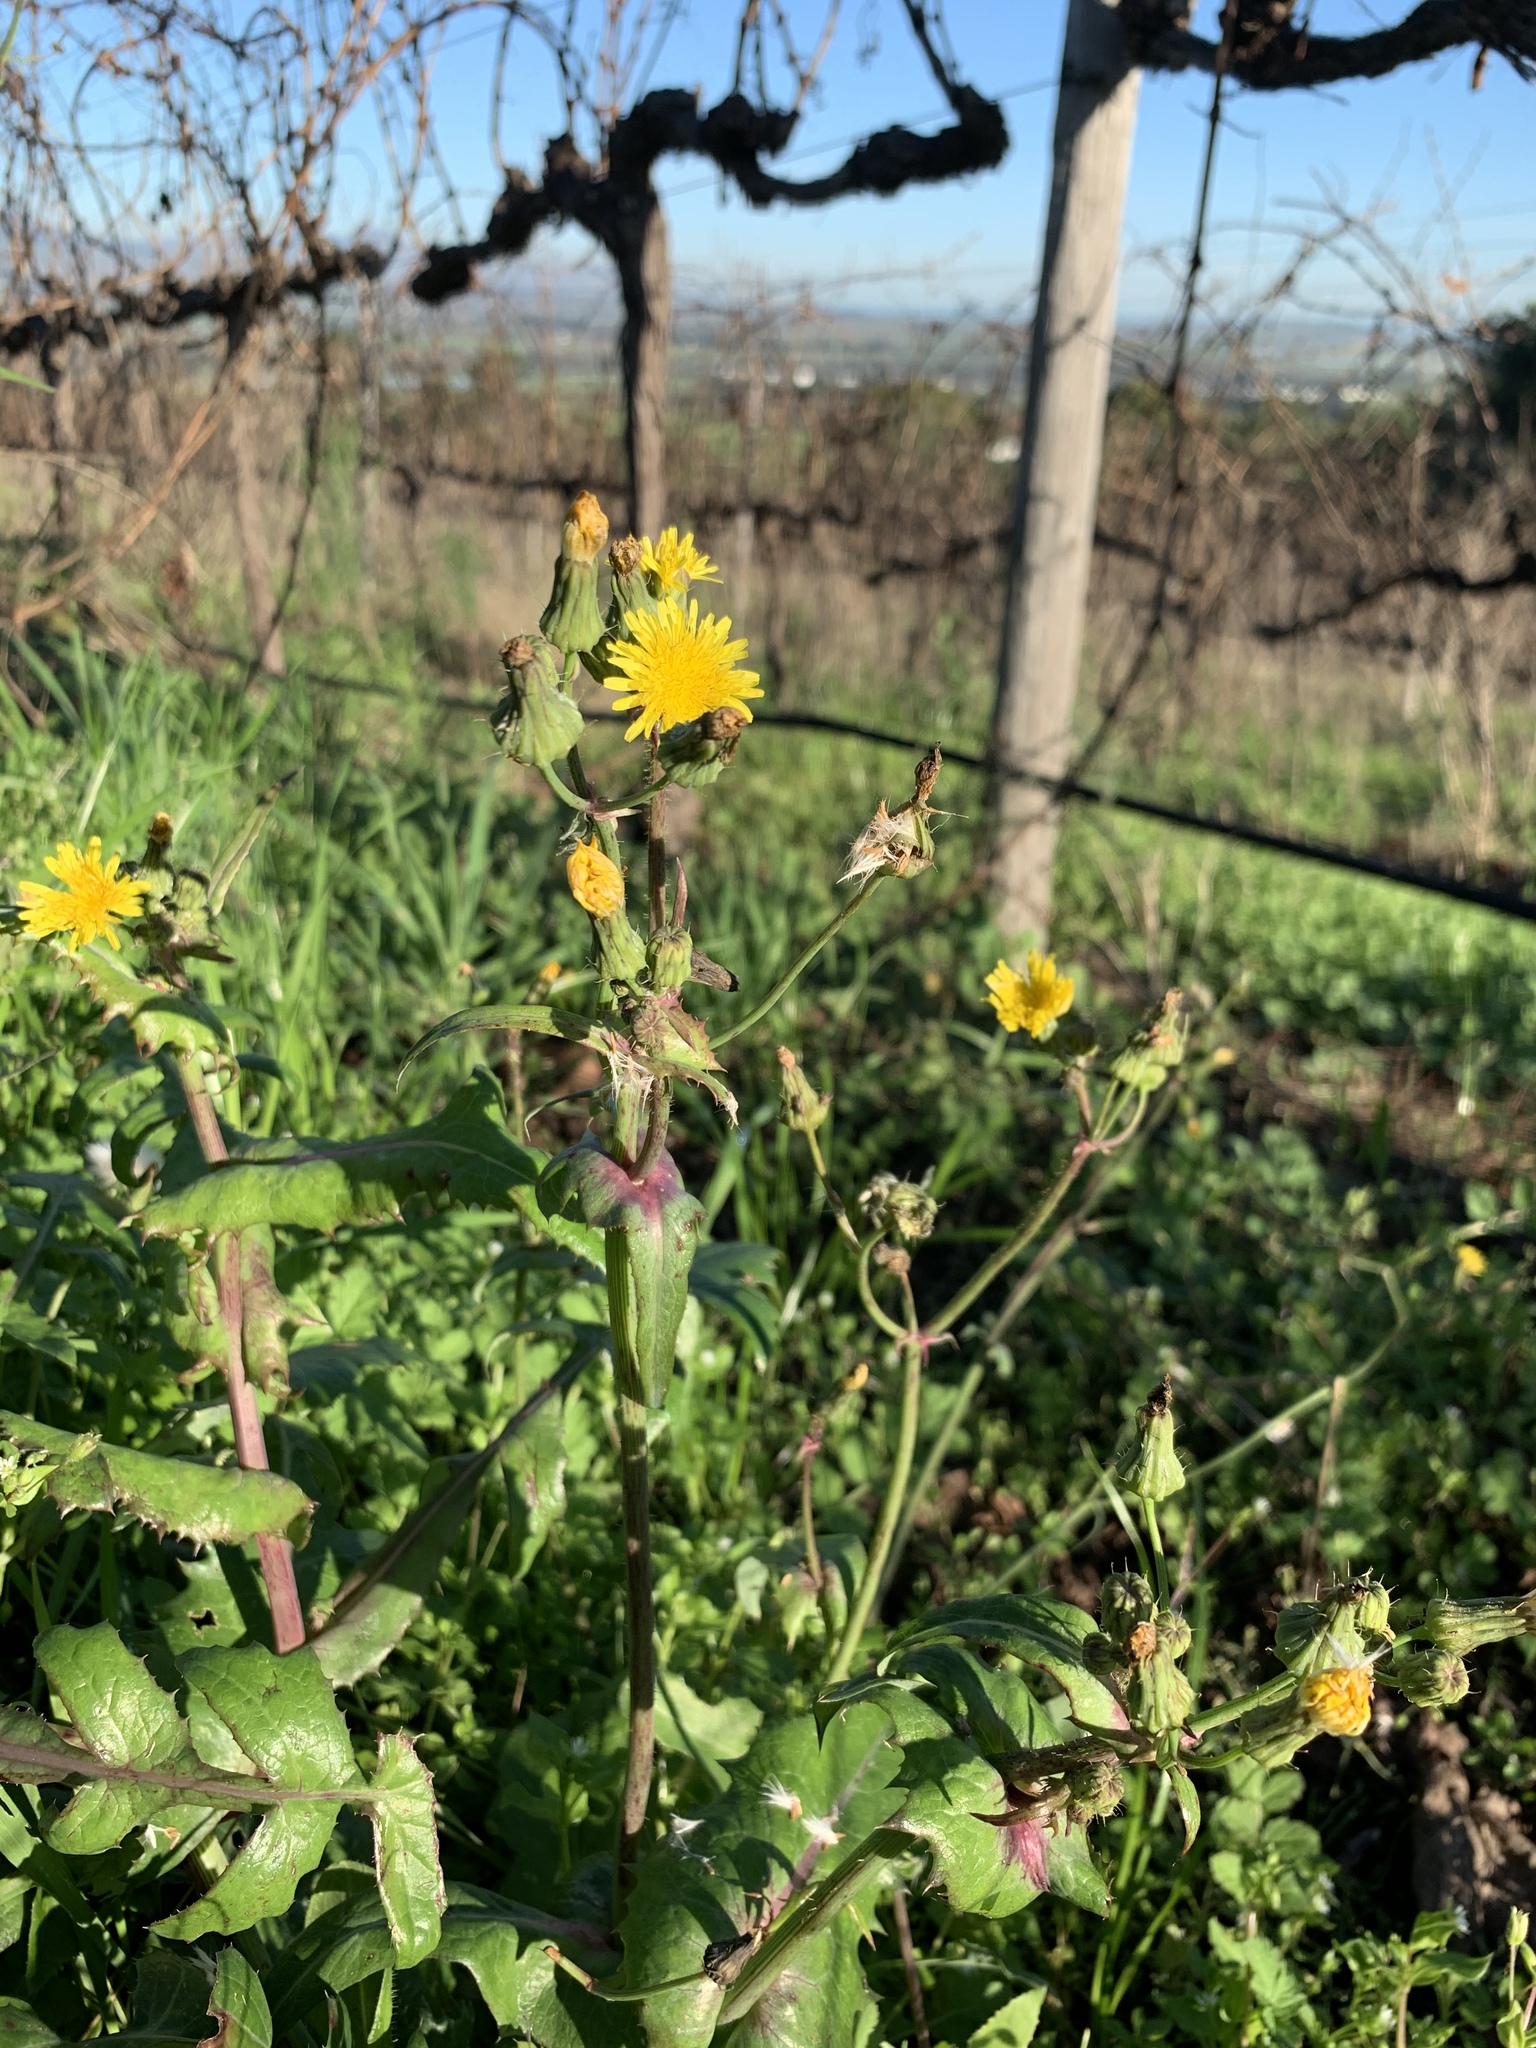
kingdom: Plantae
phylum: Tracheophyta
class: Magnoliopsida
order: Asterales
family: Asteraceae
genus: Sonchus
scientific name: Sonchus oleraceus
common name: Common sowthistle
